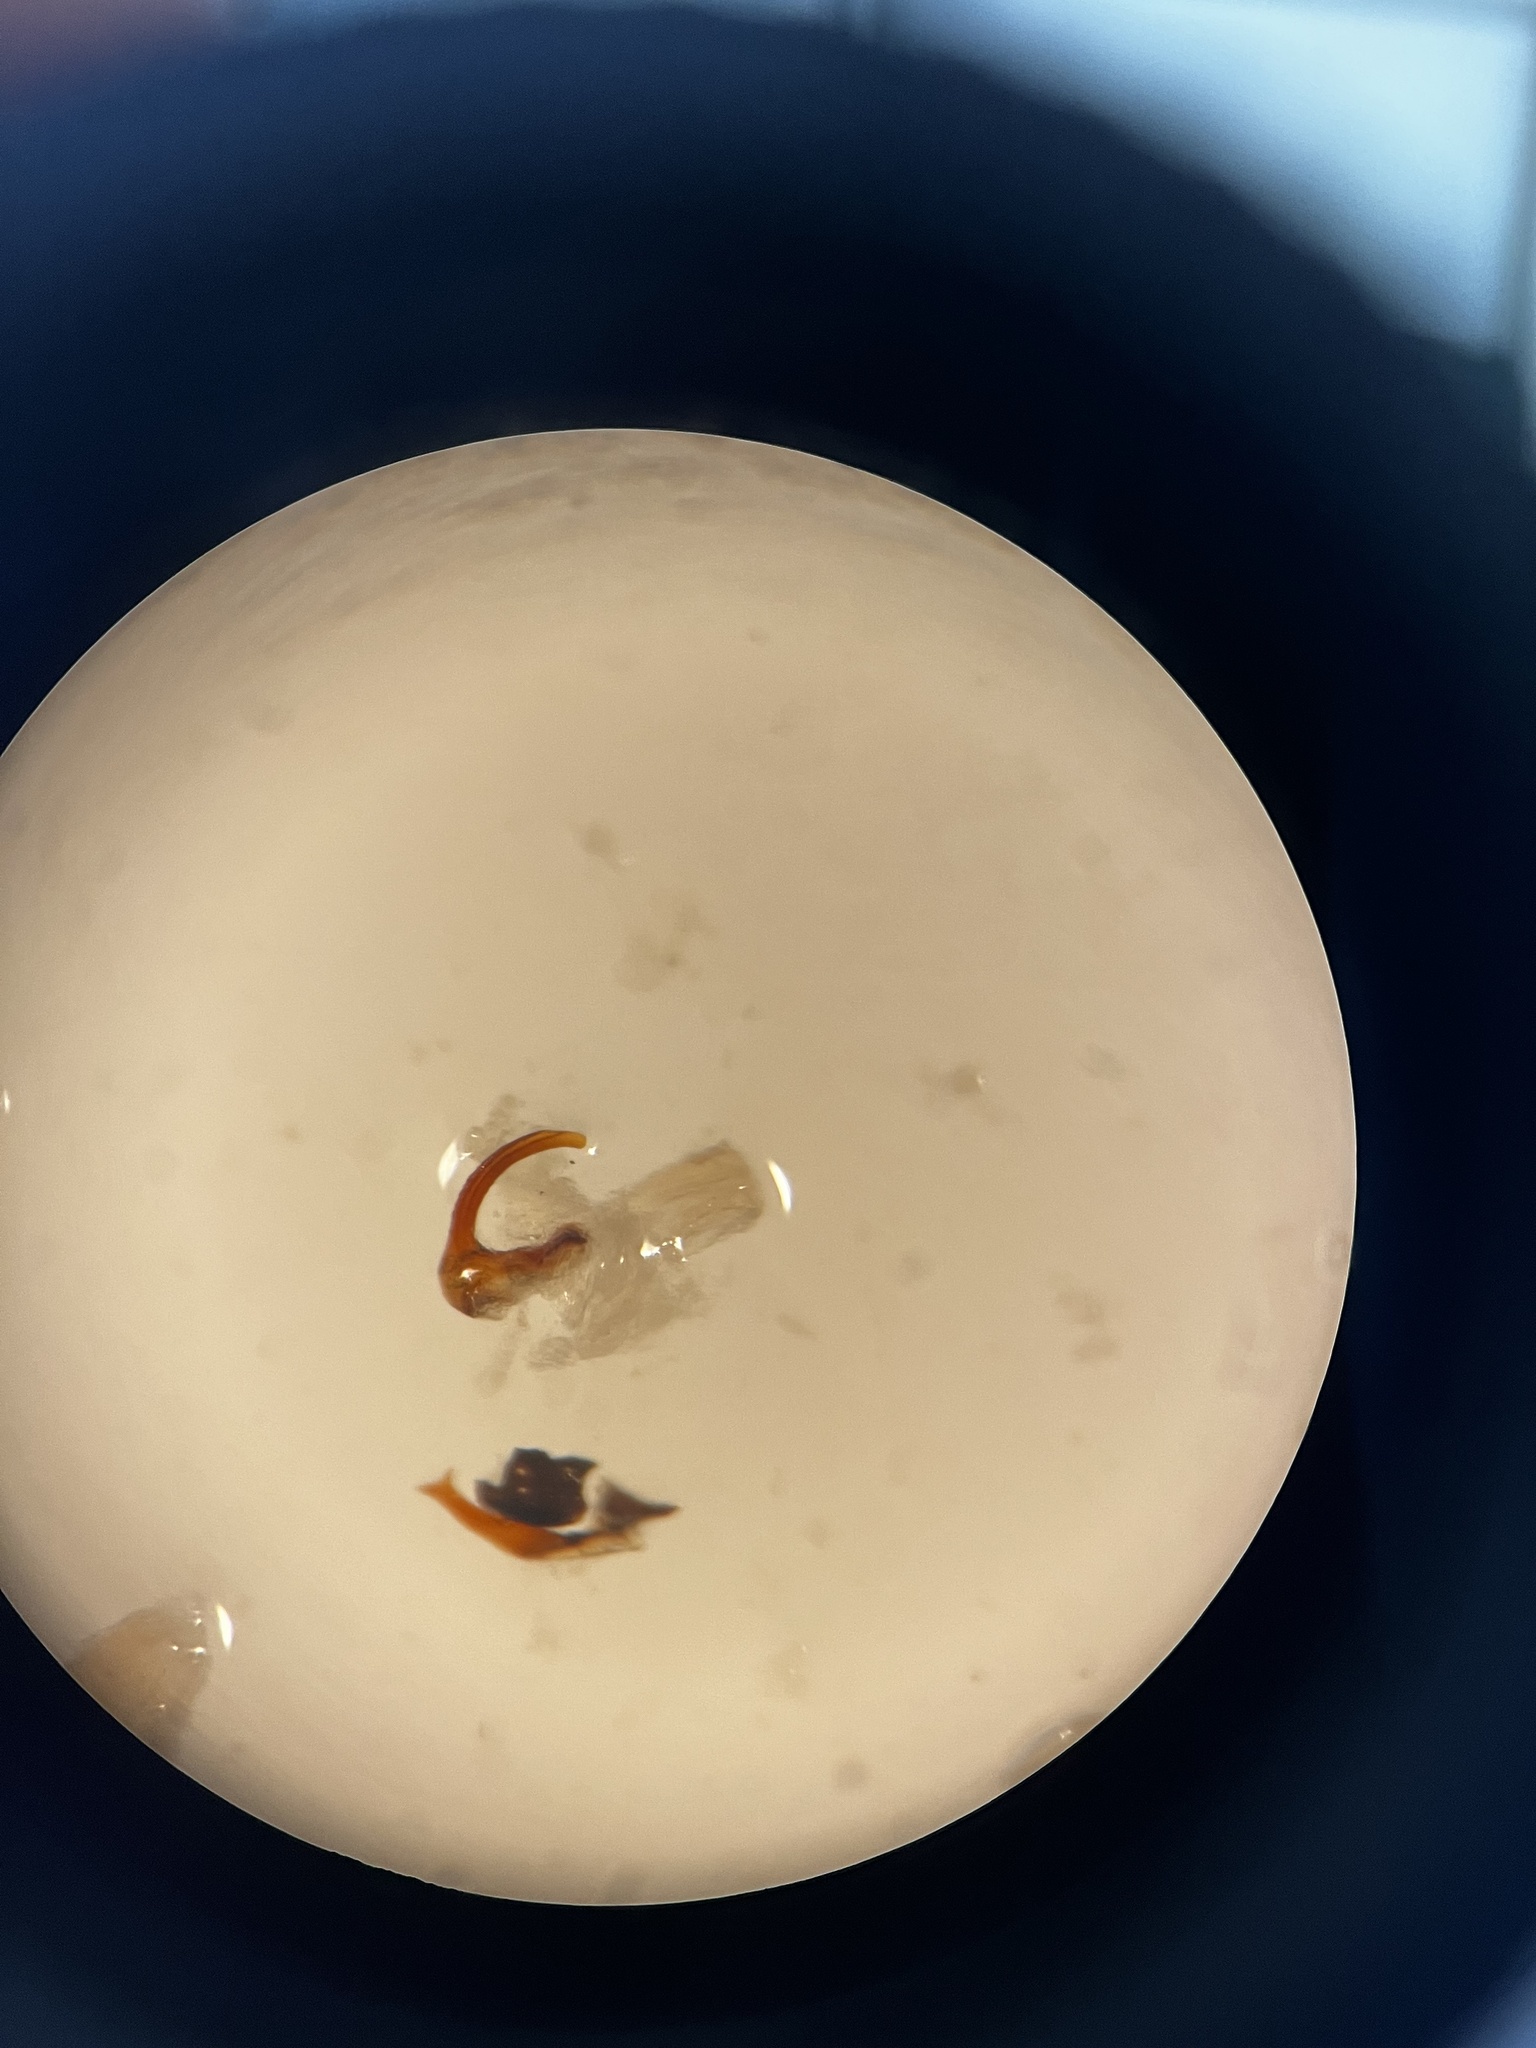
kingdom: Animalia
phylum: Arthropoda
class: Insecta
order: Hemiptera
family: Cicadellidae
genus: Anaceratagallia
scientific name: Anaceratagallia ribauti
